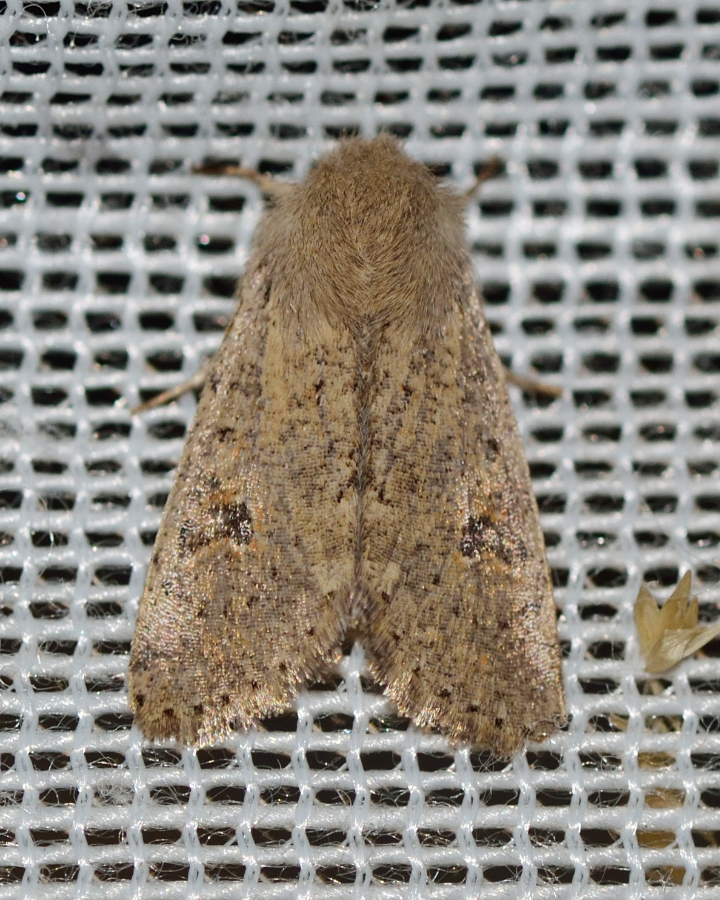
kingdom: Animalia
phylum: Arthropoda
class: Insecta
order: Lepidoptera
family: Noctuidae
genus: Orthosia
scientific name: Orthosia cruda
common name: Small quaker
